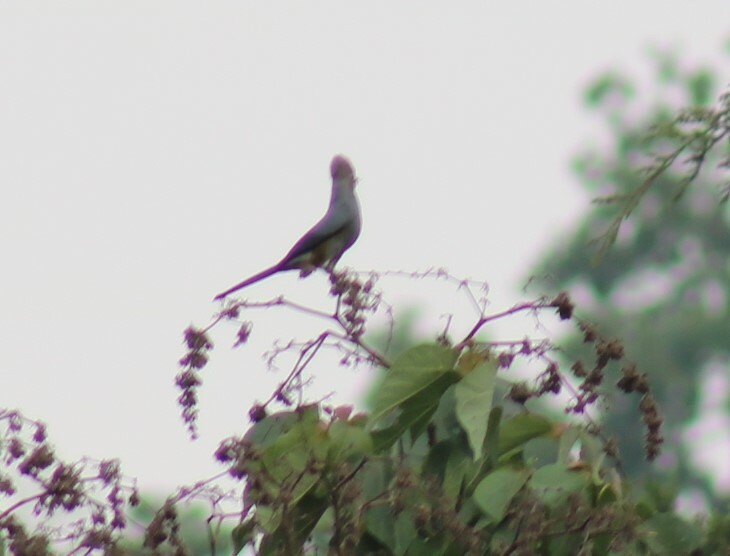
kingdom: Animalia
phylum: Chordata
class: Aves
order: Passeriformes
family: Ptilogonatidae
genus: Ptilogonys
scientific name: Ptilogonys cinereus
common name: Gray silky-flycatcher
